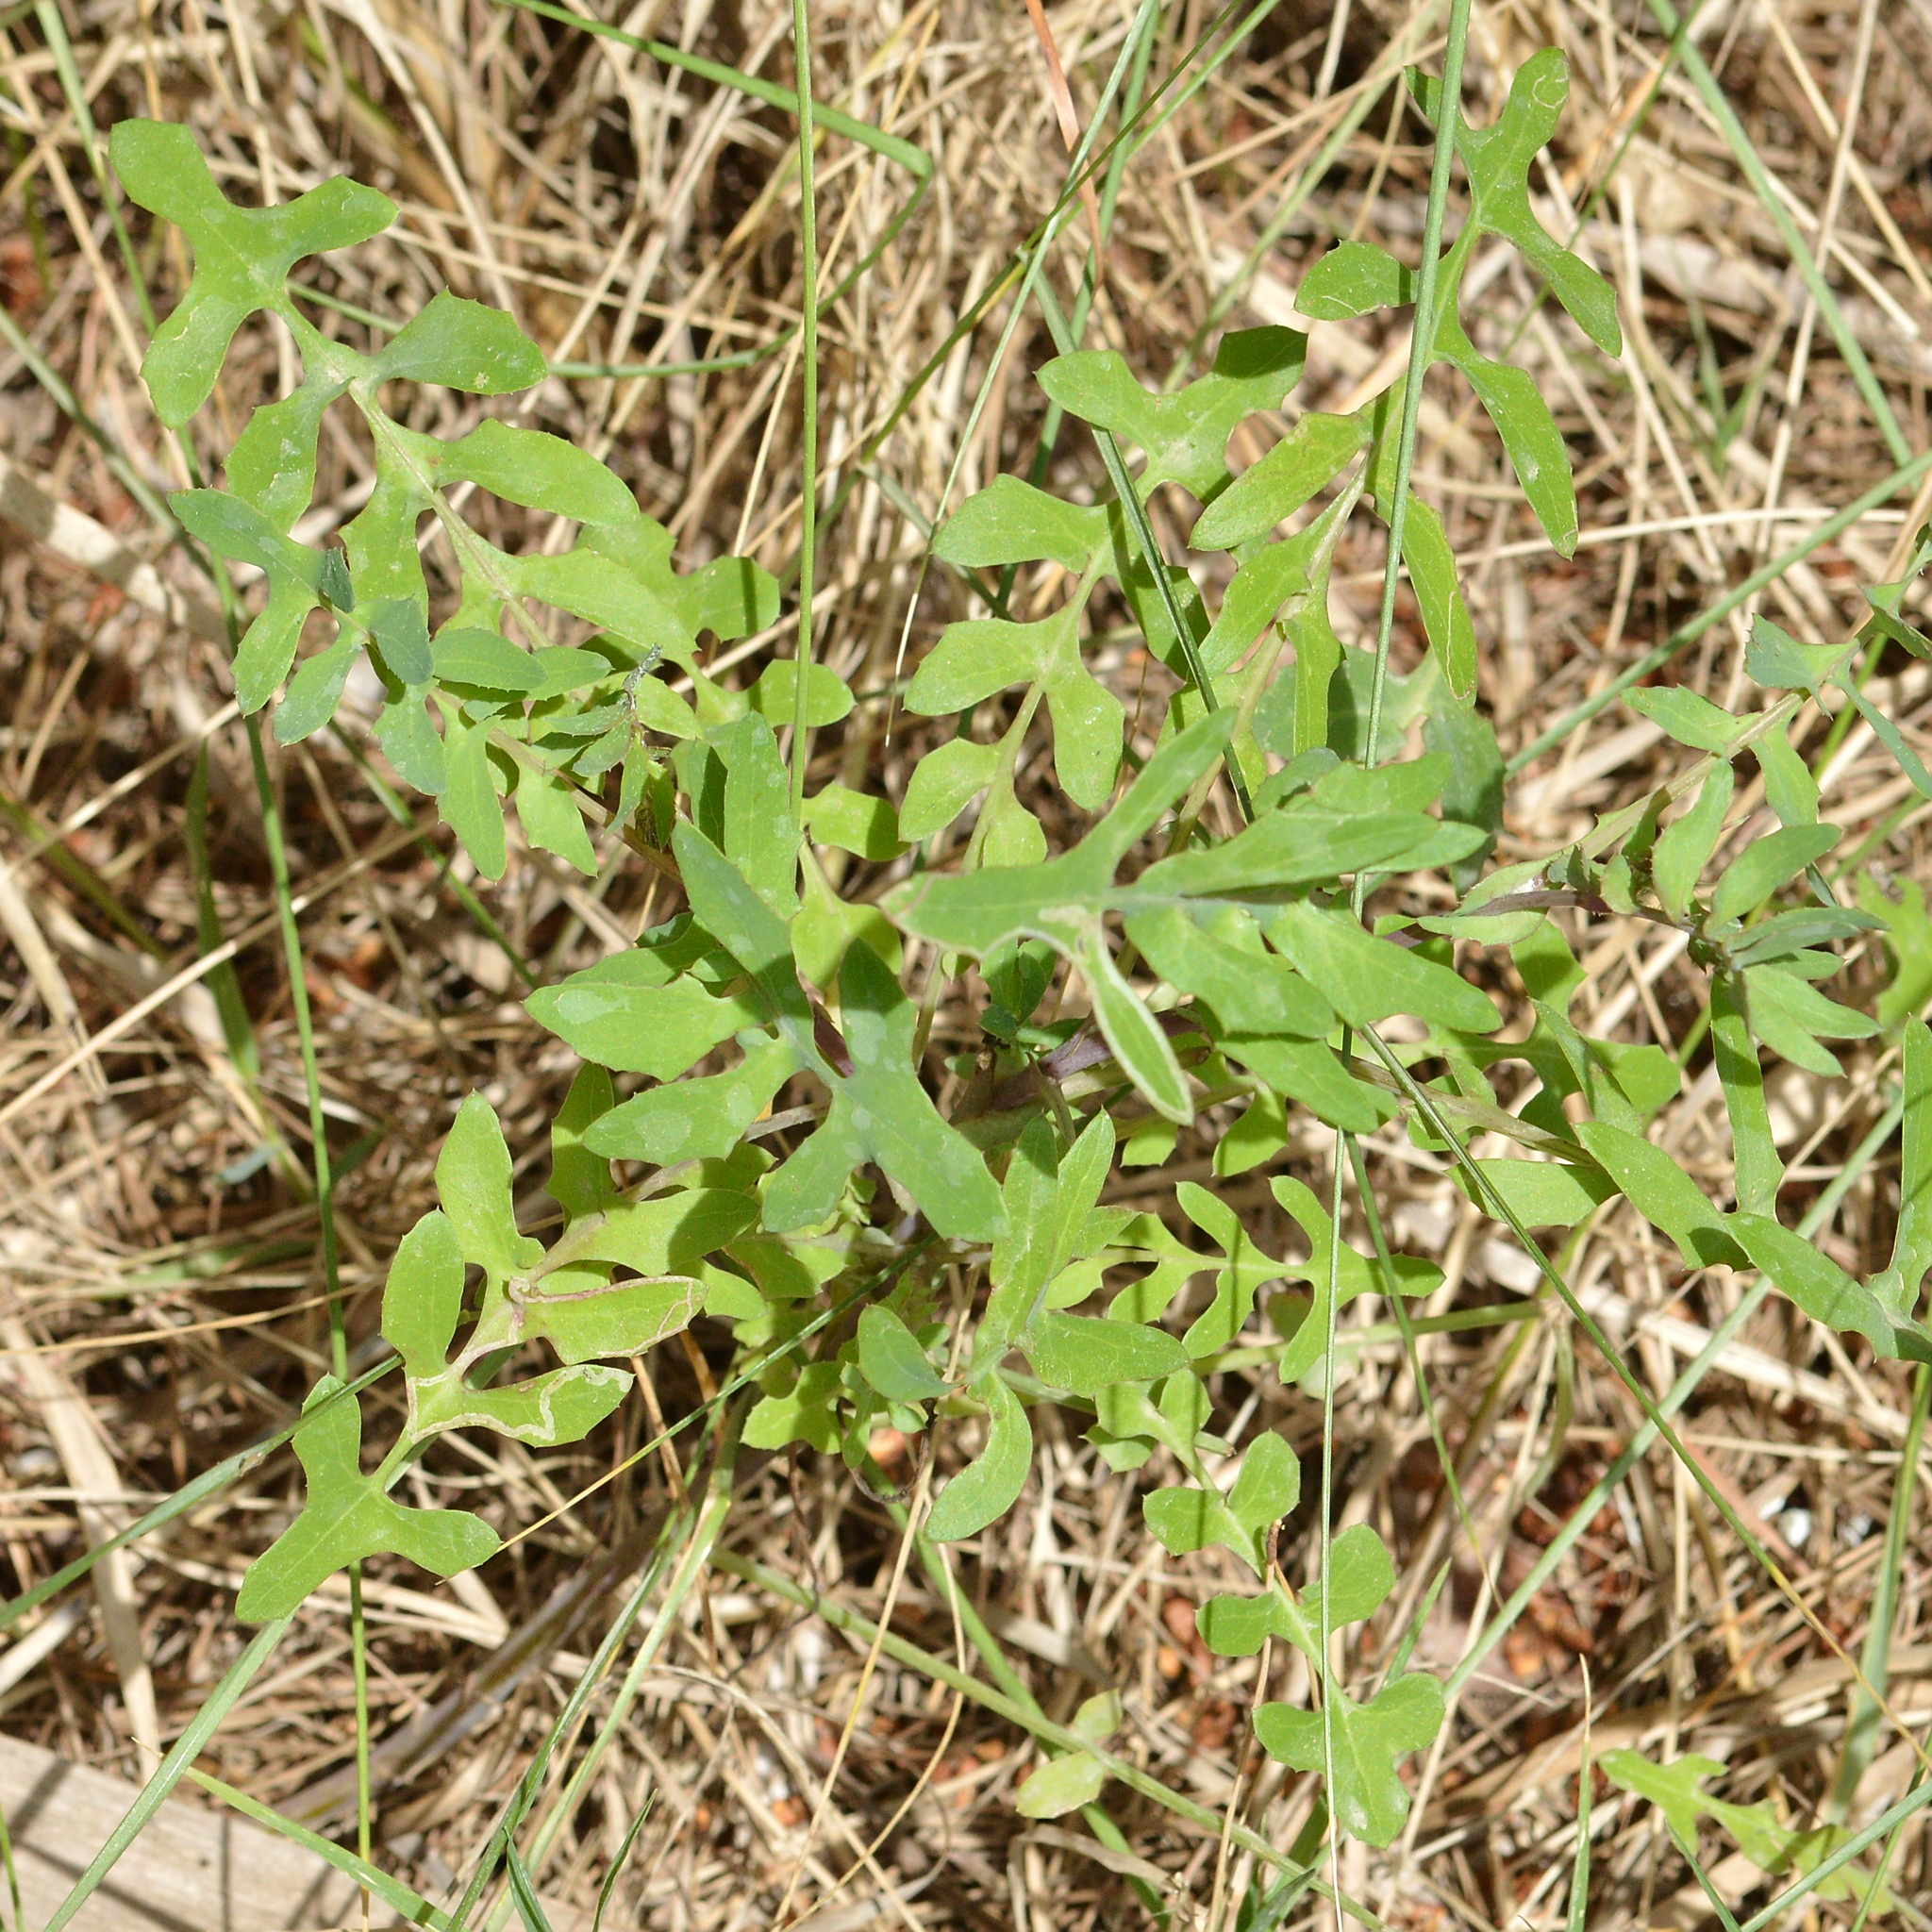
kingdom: Plantae
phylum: Tracheophyta
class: Magnoliopsida
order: Asterales
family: Asteraceae
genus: Sonchus
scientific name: Sonchus tenerrimus
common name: Clammy sowthistle
